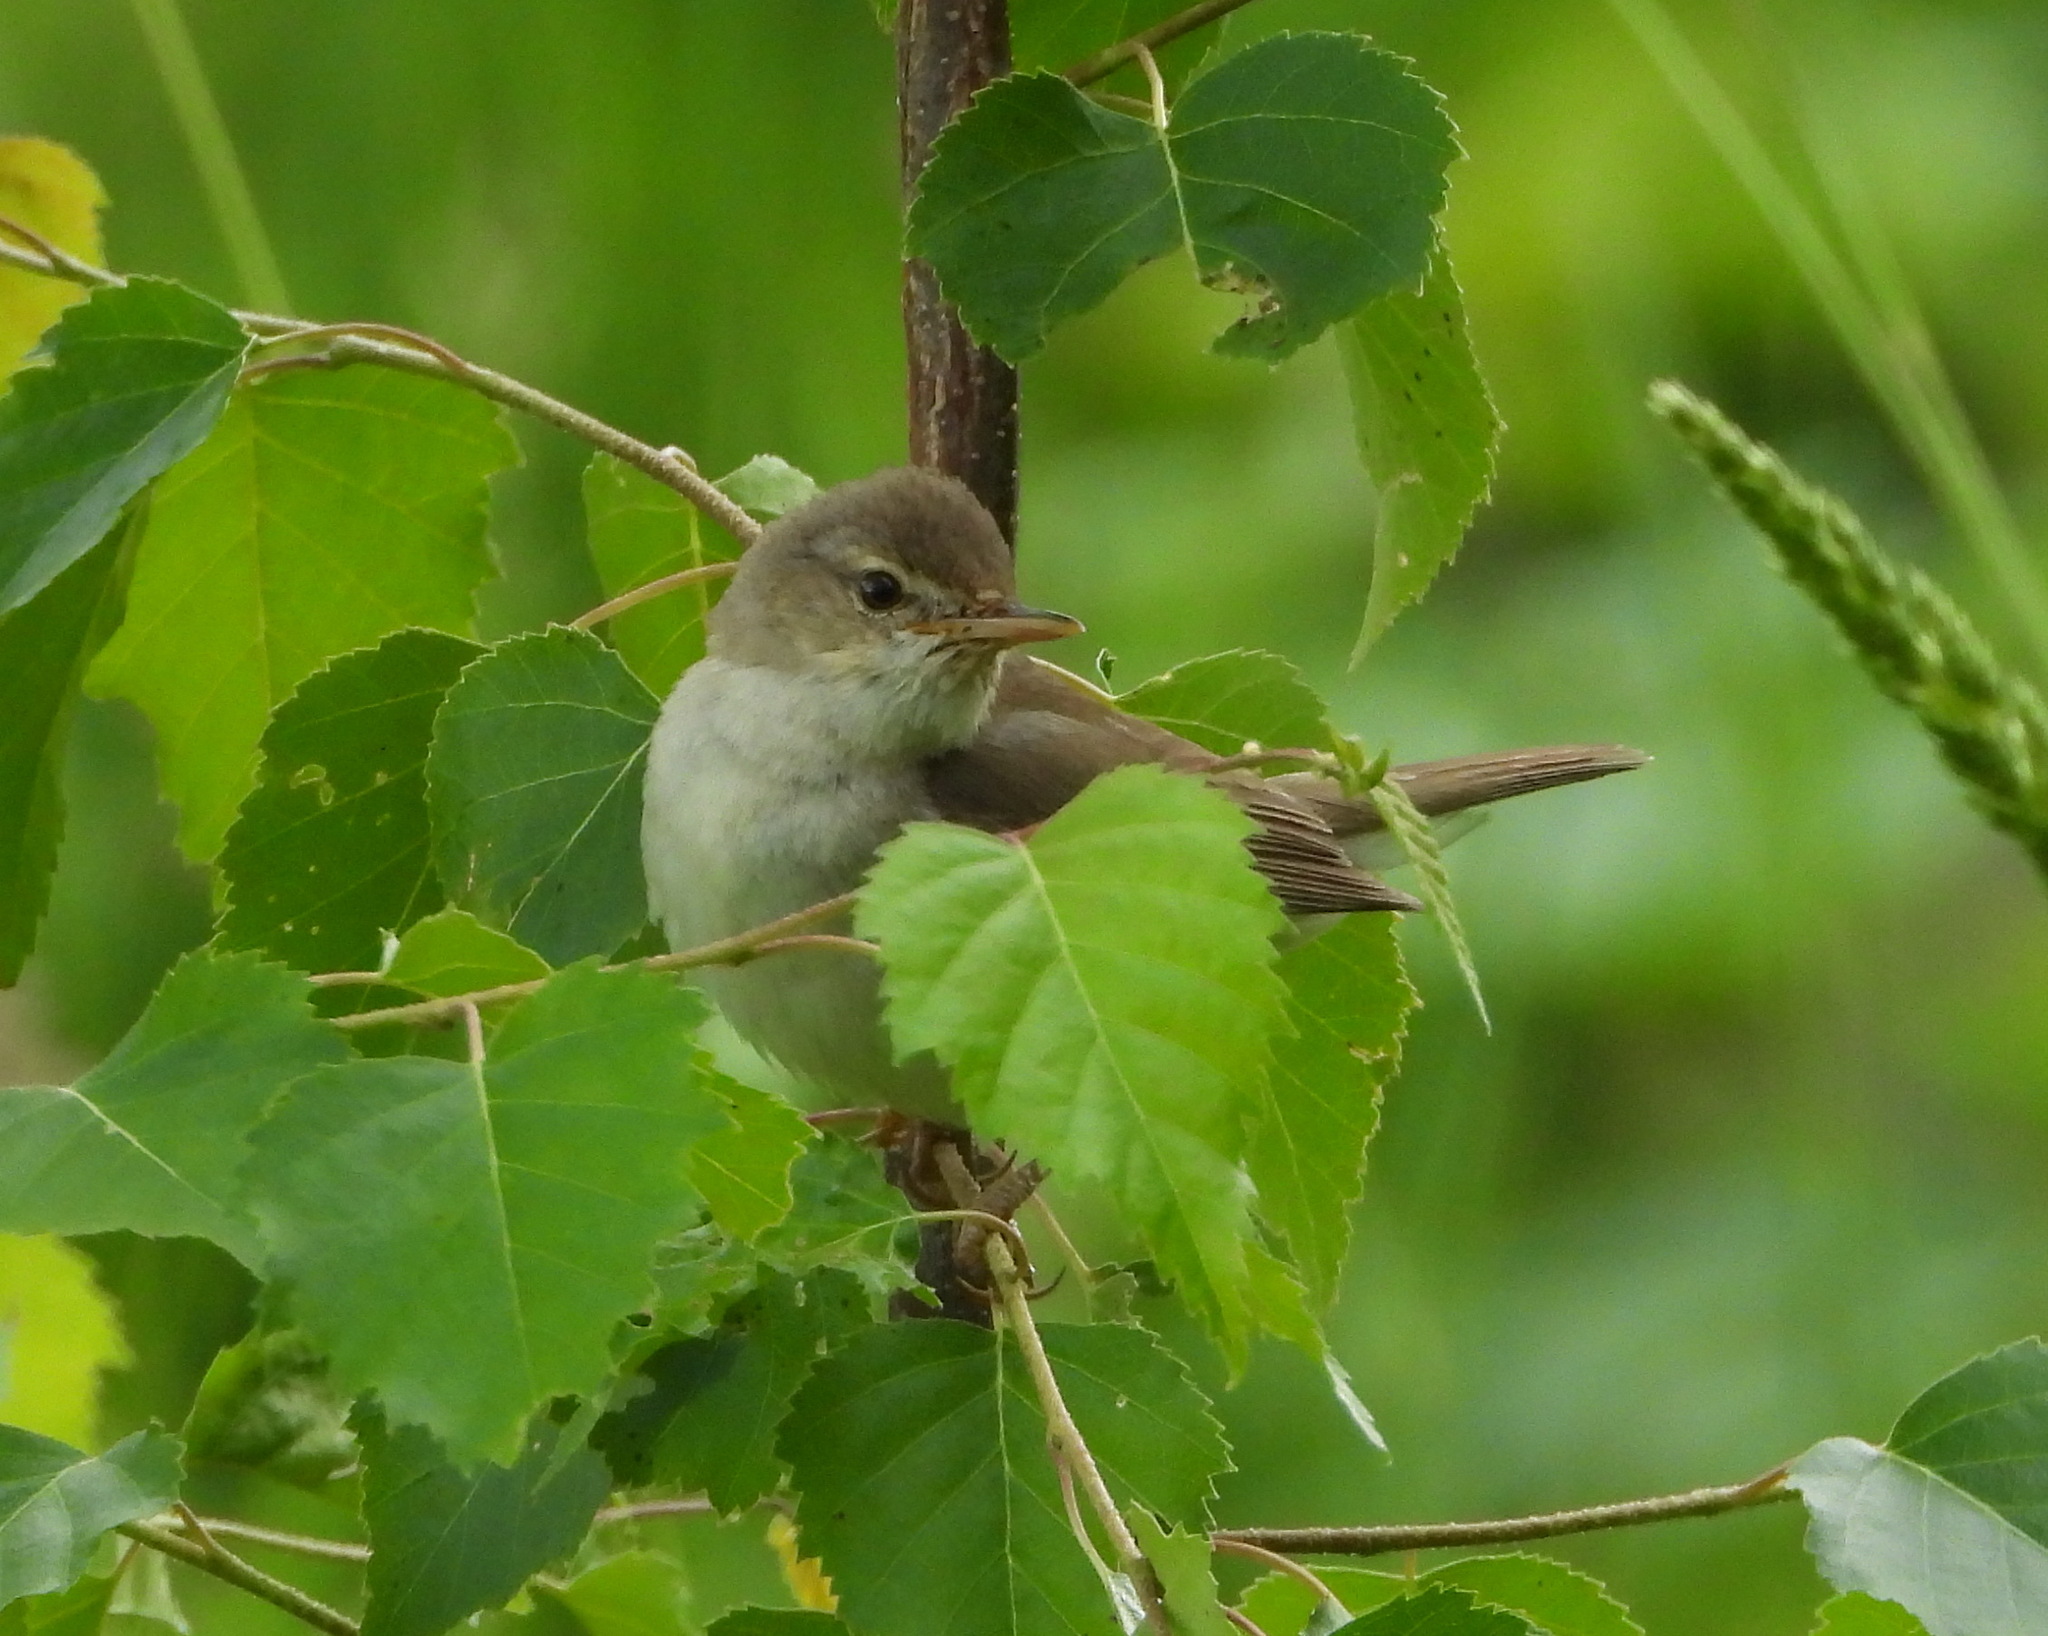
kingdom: Animalia
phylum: Chordata
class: Aves
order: Passeriformes
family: Acrocephalidae
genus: Acrocephalus
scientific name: Acrocephalus dumetorum
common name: Blyth's reed warbler
